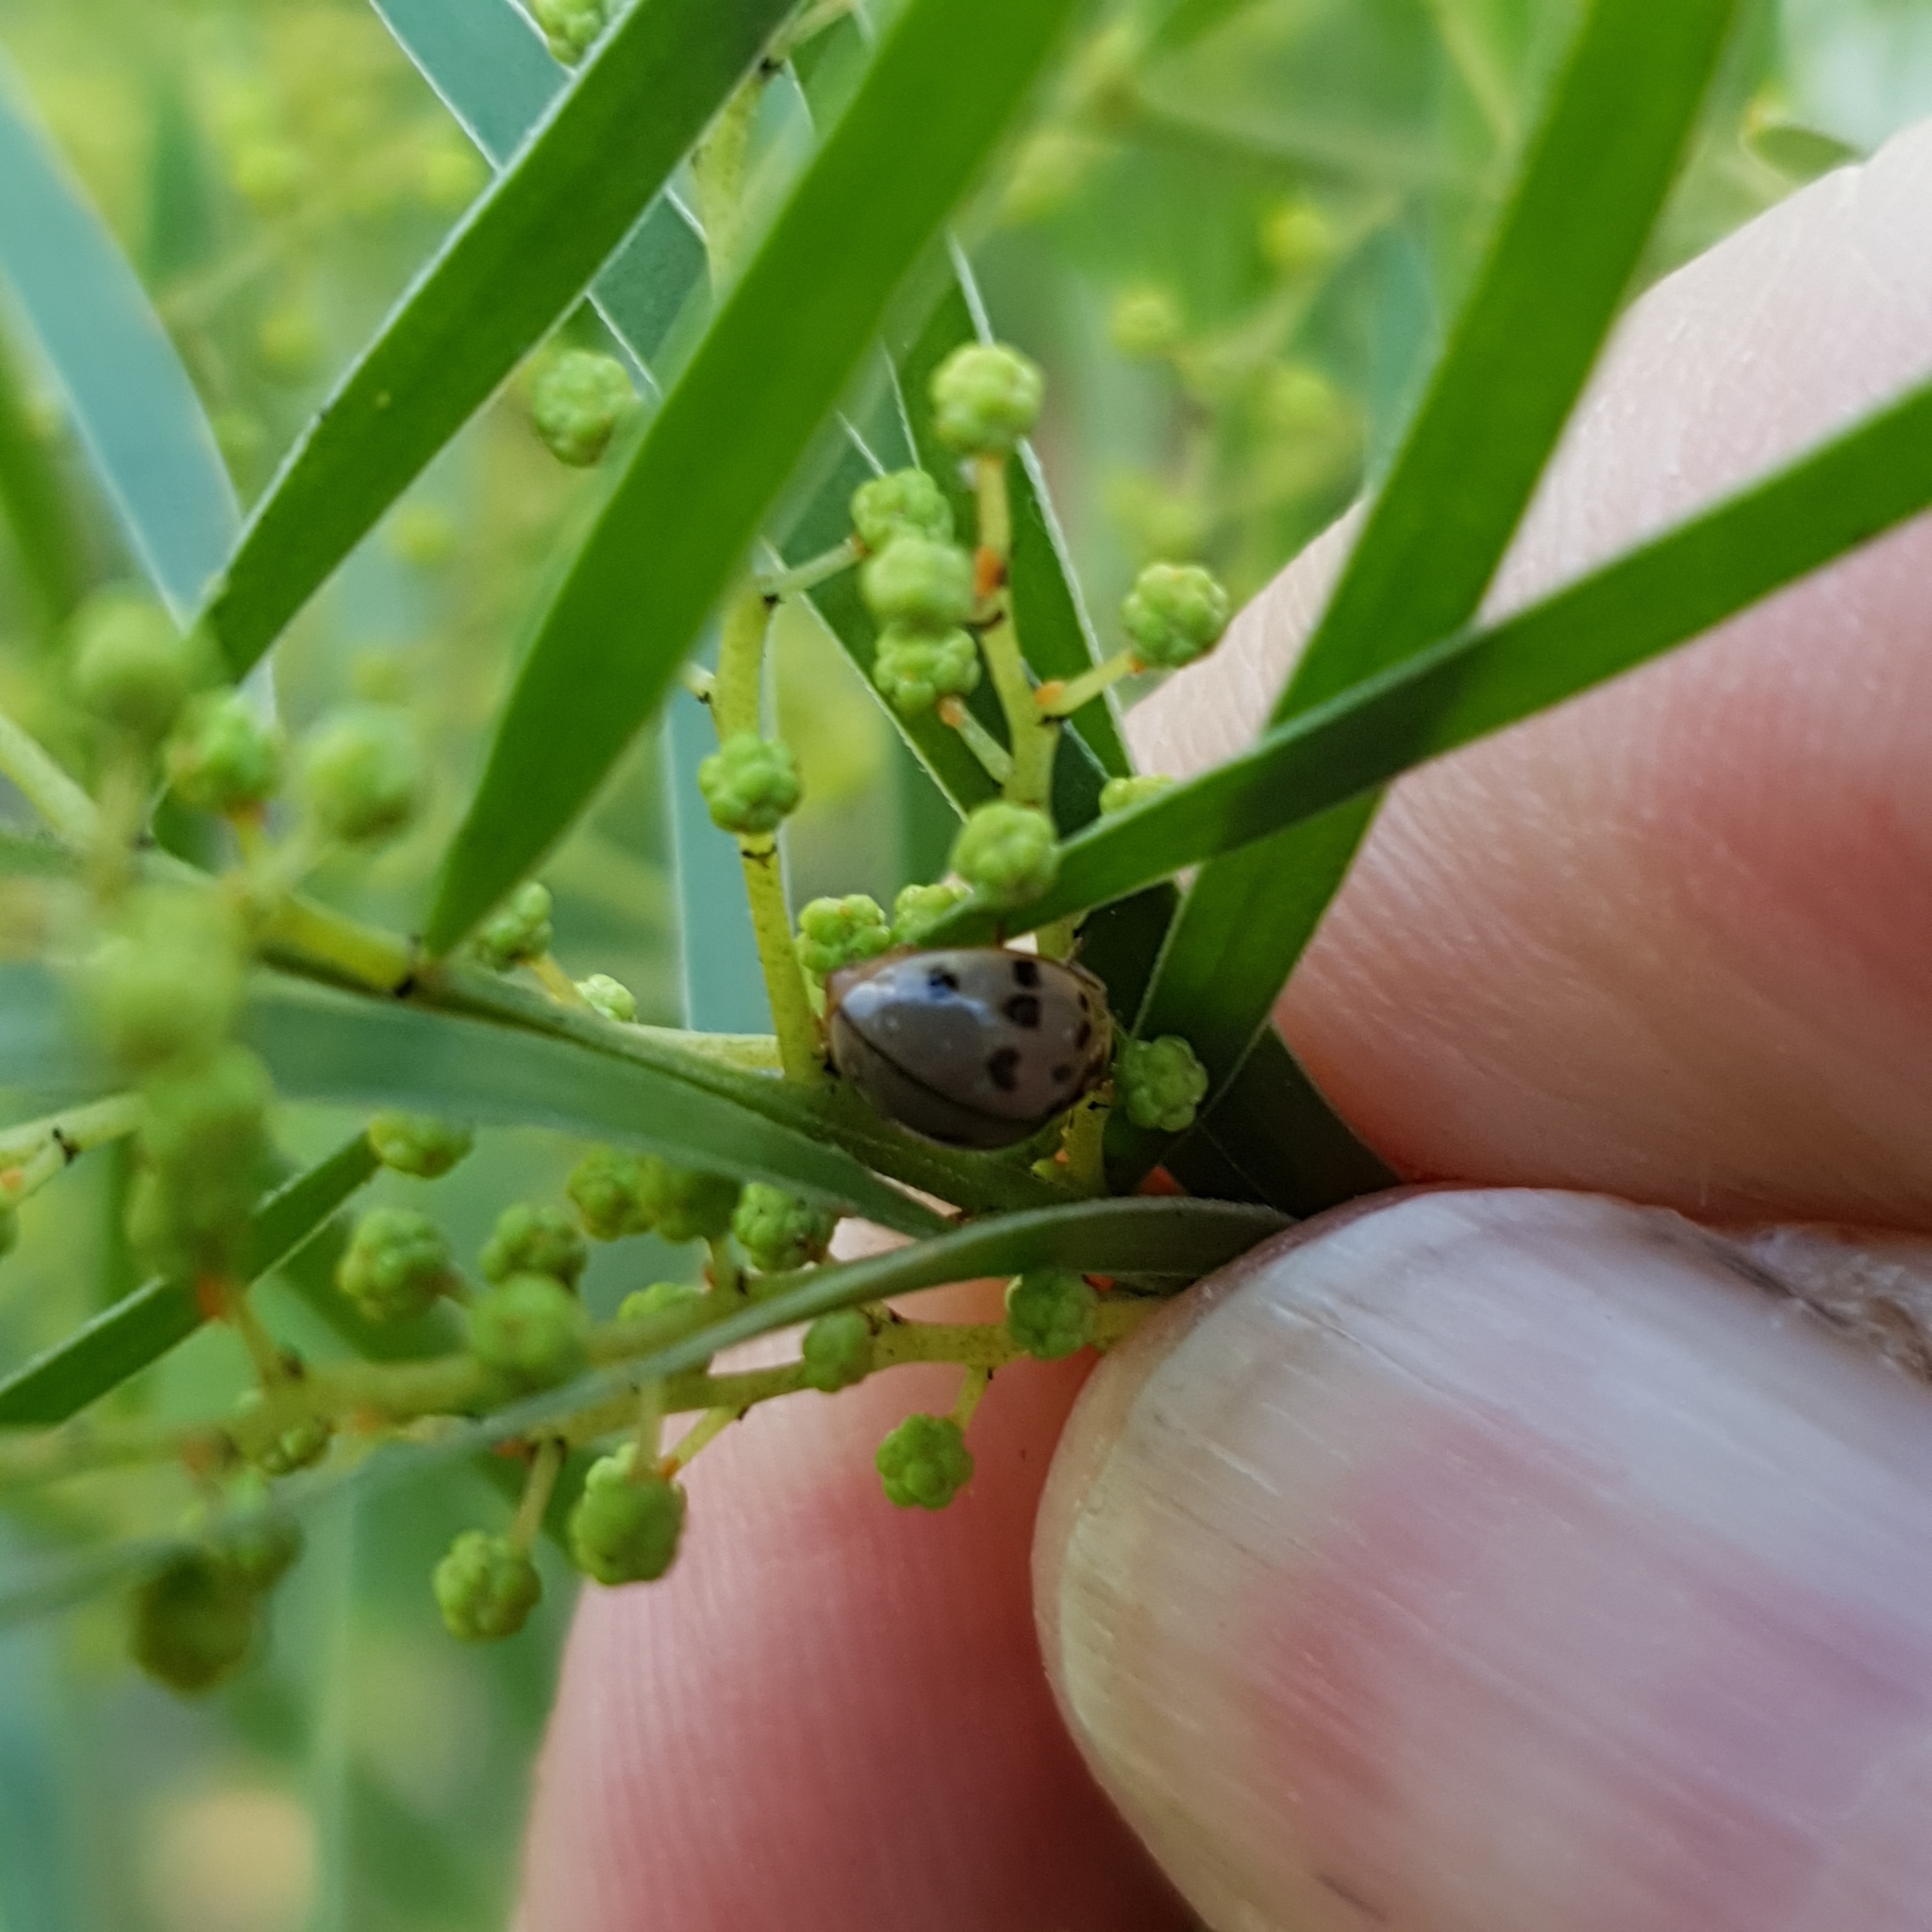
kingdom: Animalia
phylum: Arthropoda
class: Insecta
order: Coleoptera
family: Coccinellidae
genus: Olla
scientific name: Olla v-nigrum
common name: Ashy gray lady beetle
